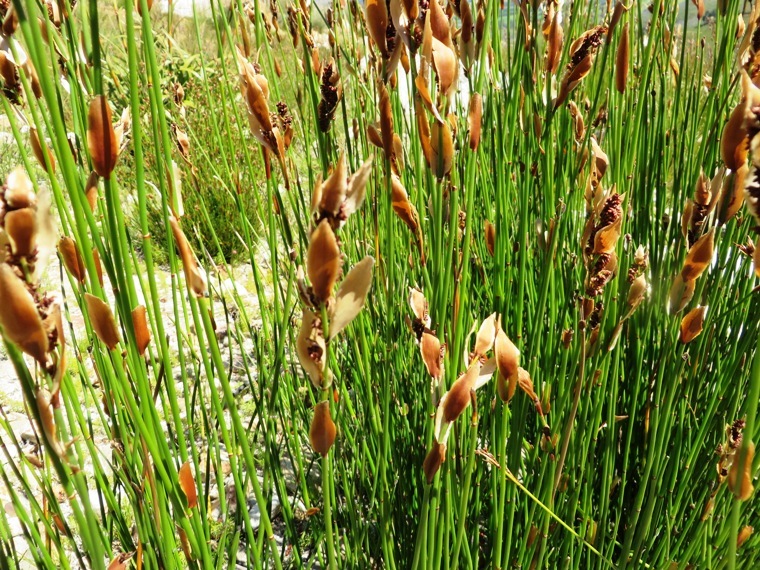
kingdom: Plantae
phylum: Tracheophyta
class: Liliopsida
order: Poales
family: Restionaceae
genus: Elegia
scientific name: Elegia juncea
